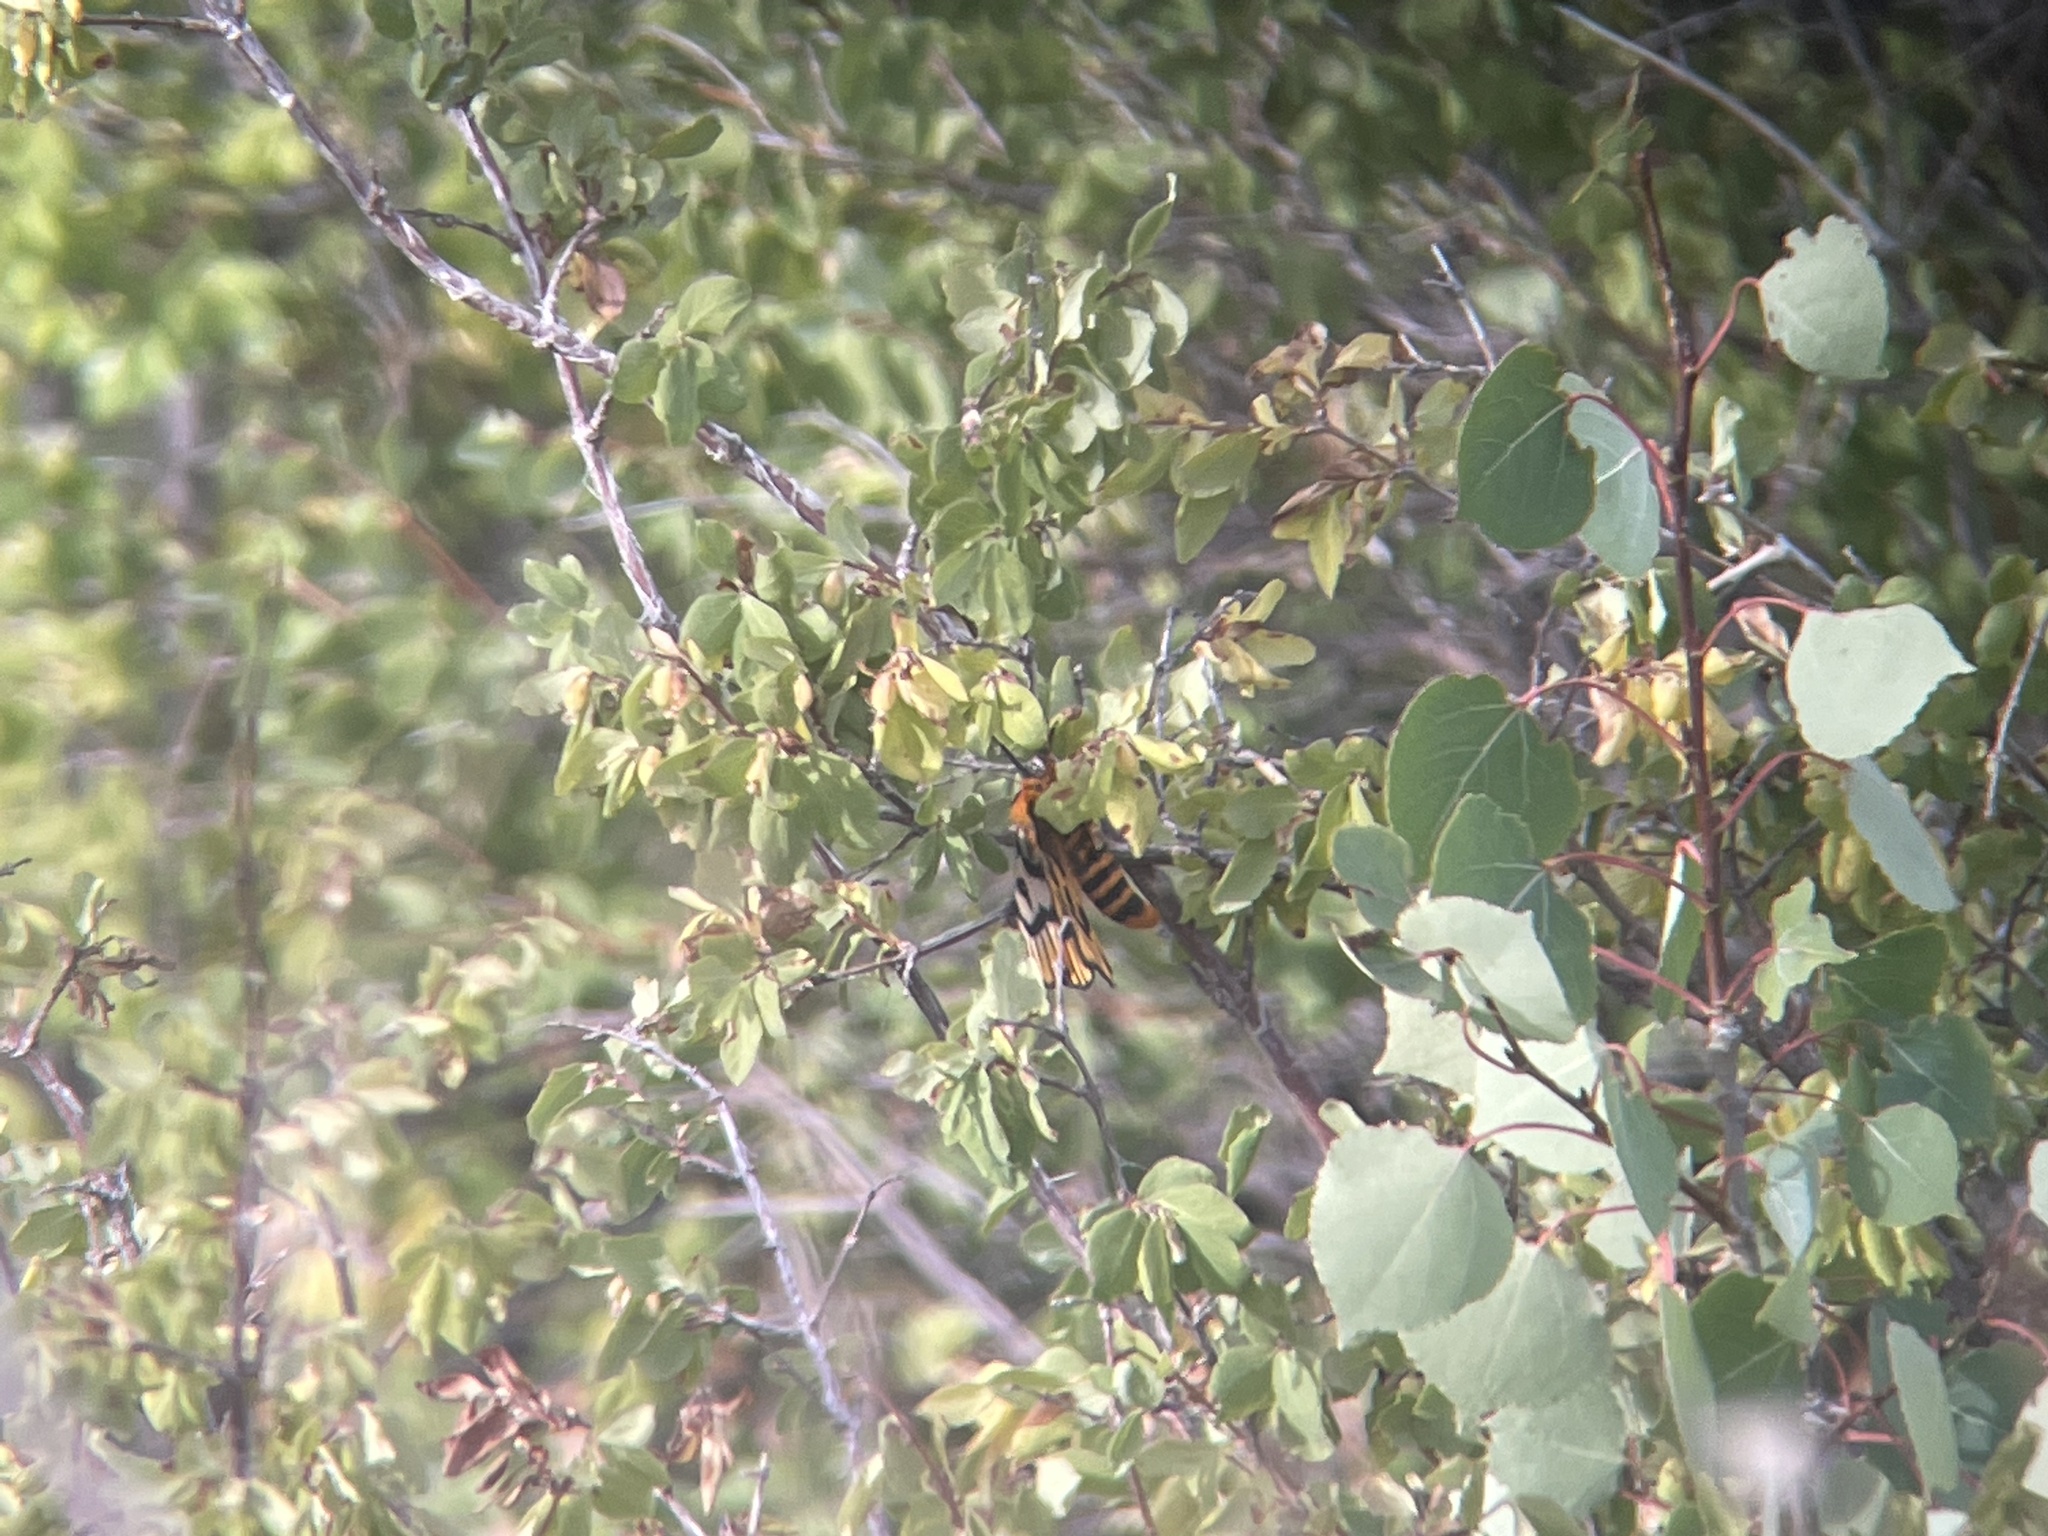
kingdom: Animalia
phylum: Arthropoda
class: Insecta
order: Lepidoptera
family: Saturniidae
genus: Hemileuca
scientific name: Hemileuca nutalli
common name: Nuttall's sheepmoth
